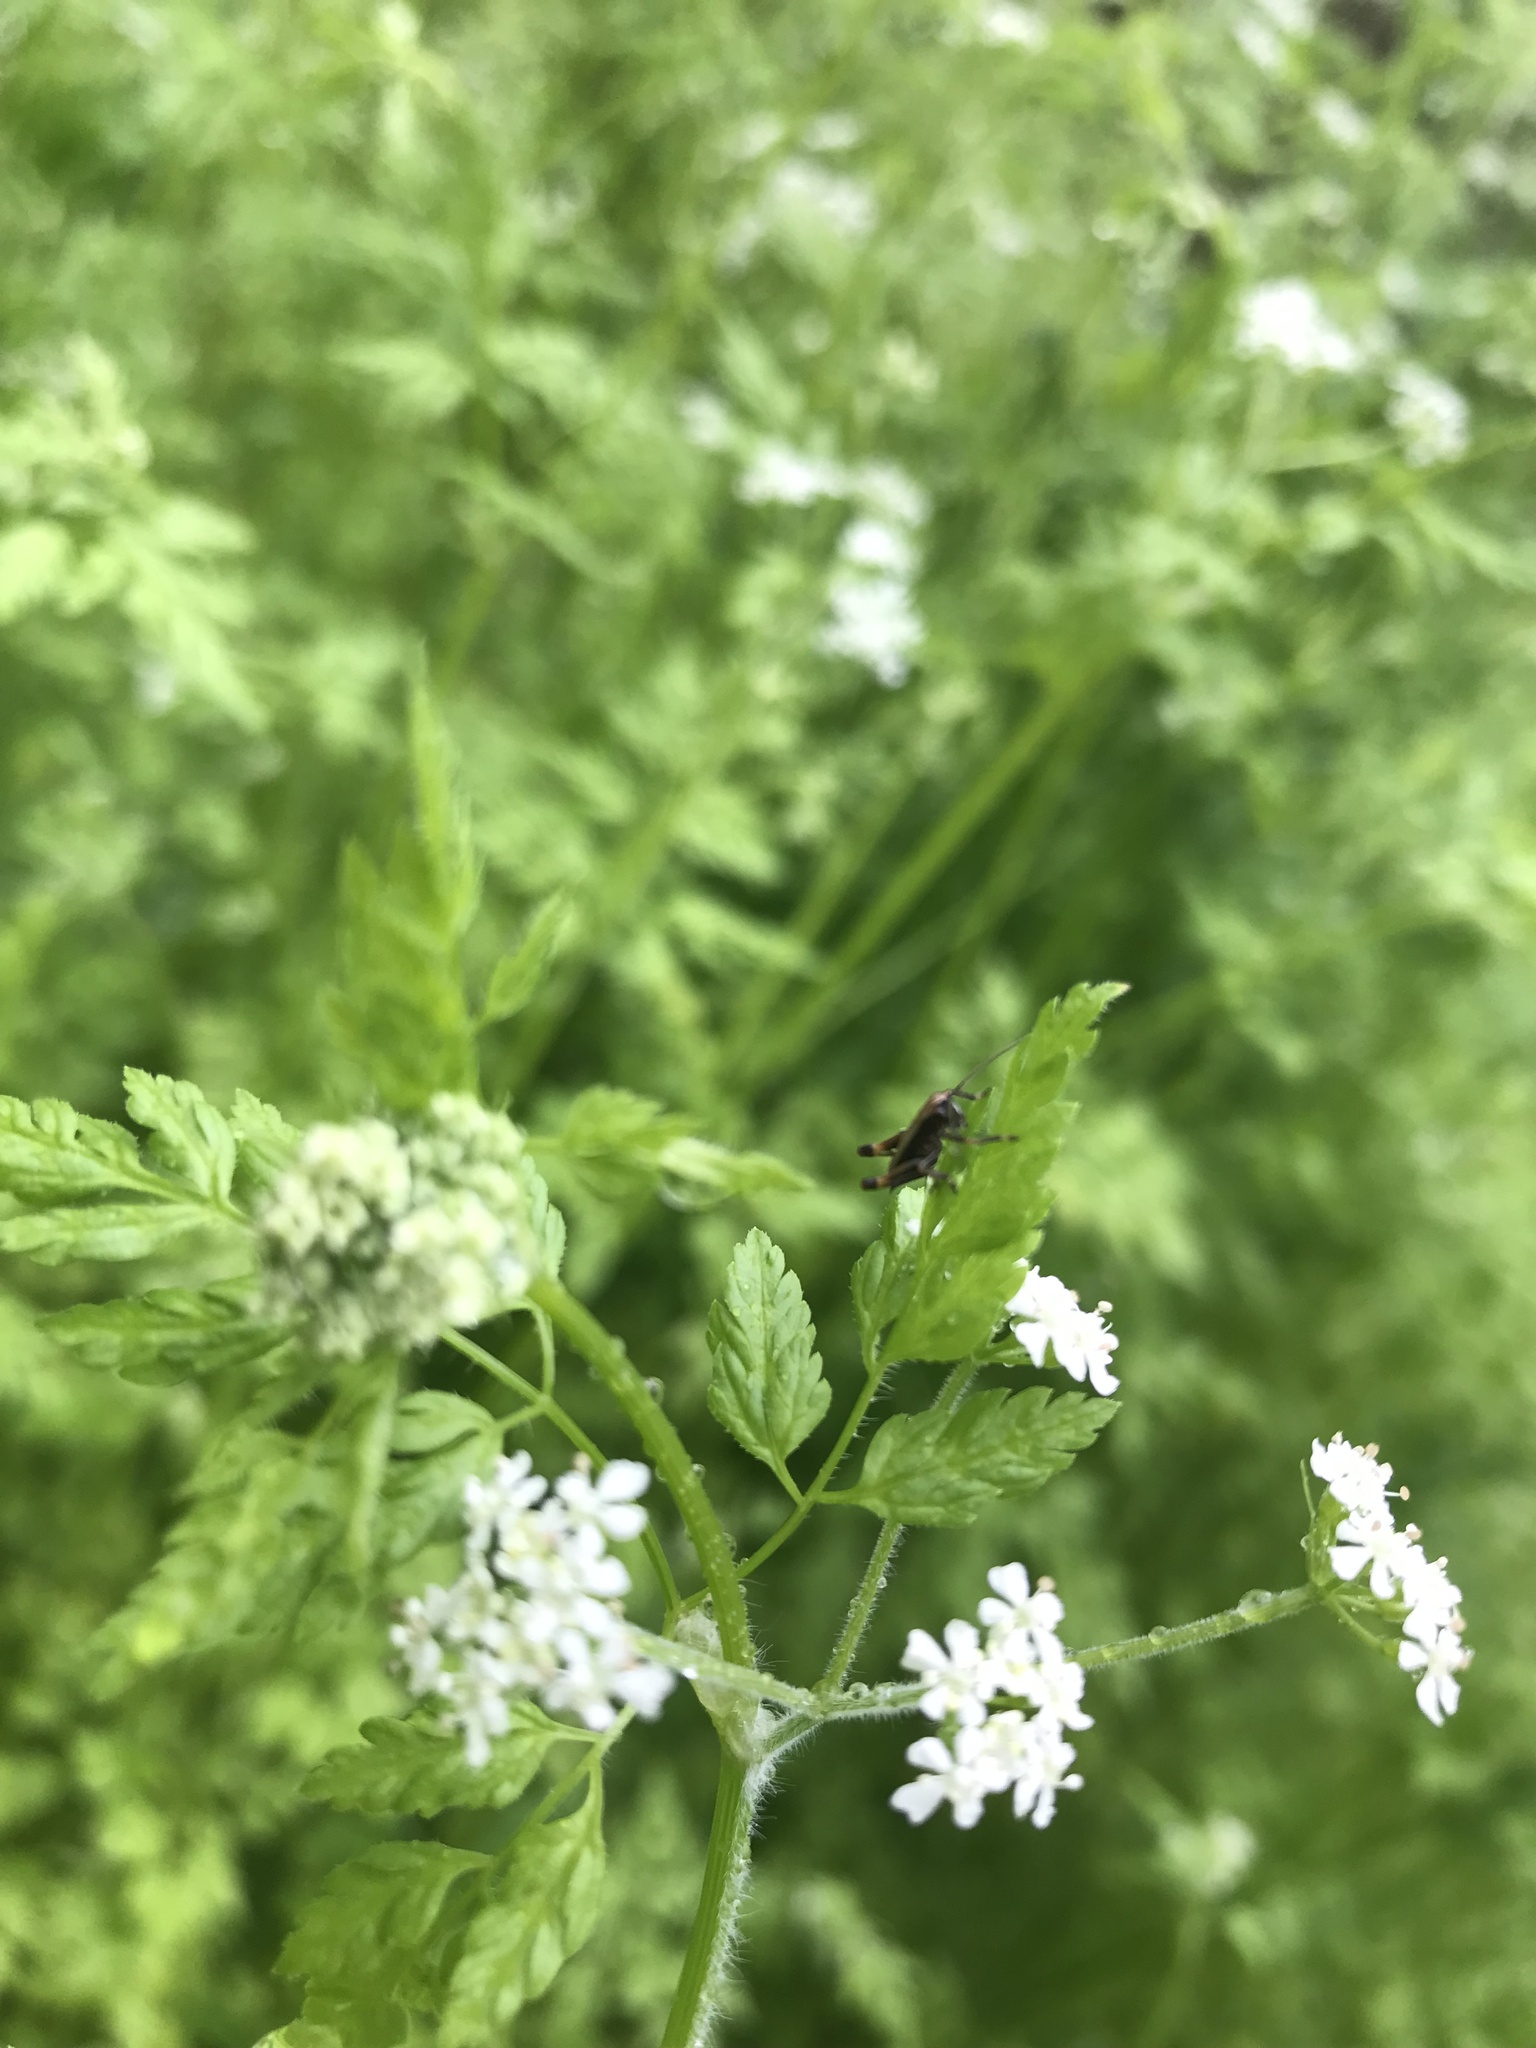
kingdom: Animalia
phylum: Arthropoda
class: Insecta
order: Orthoptera
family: Tettigoniidae
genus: Pholidoptera
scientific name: Pholidoptera griseoaptera
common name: Dark bush-cricket
